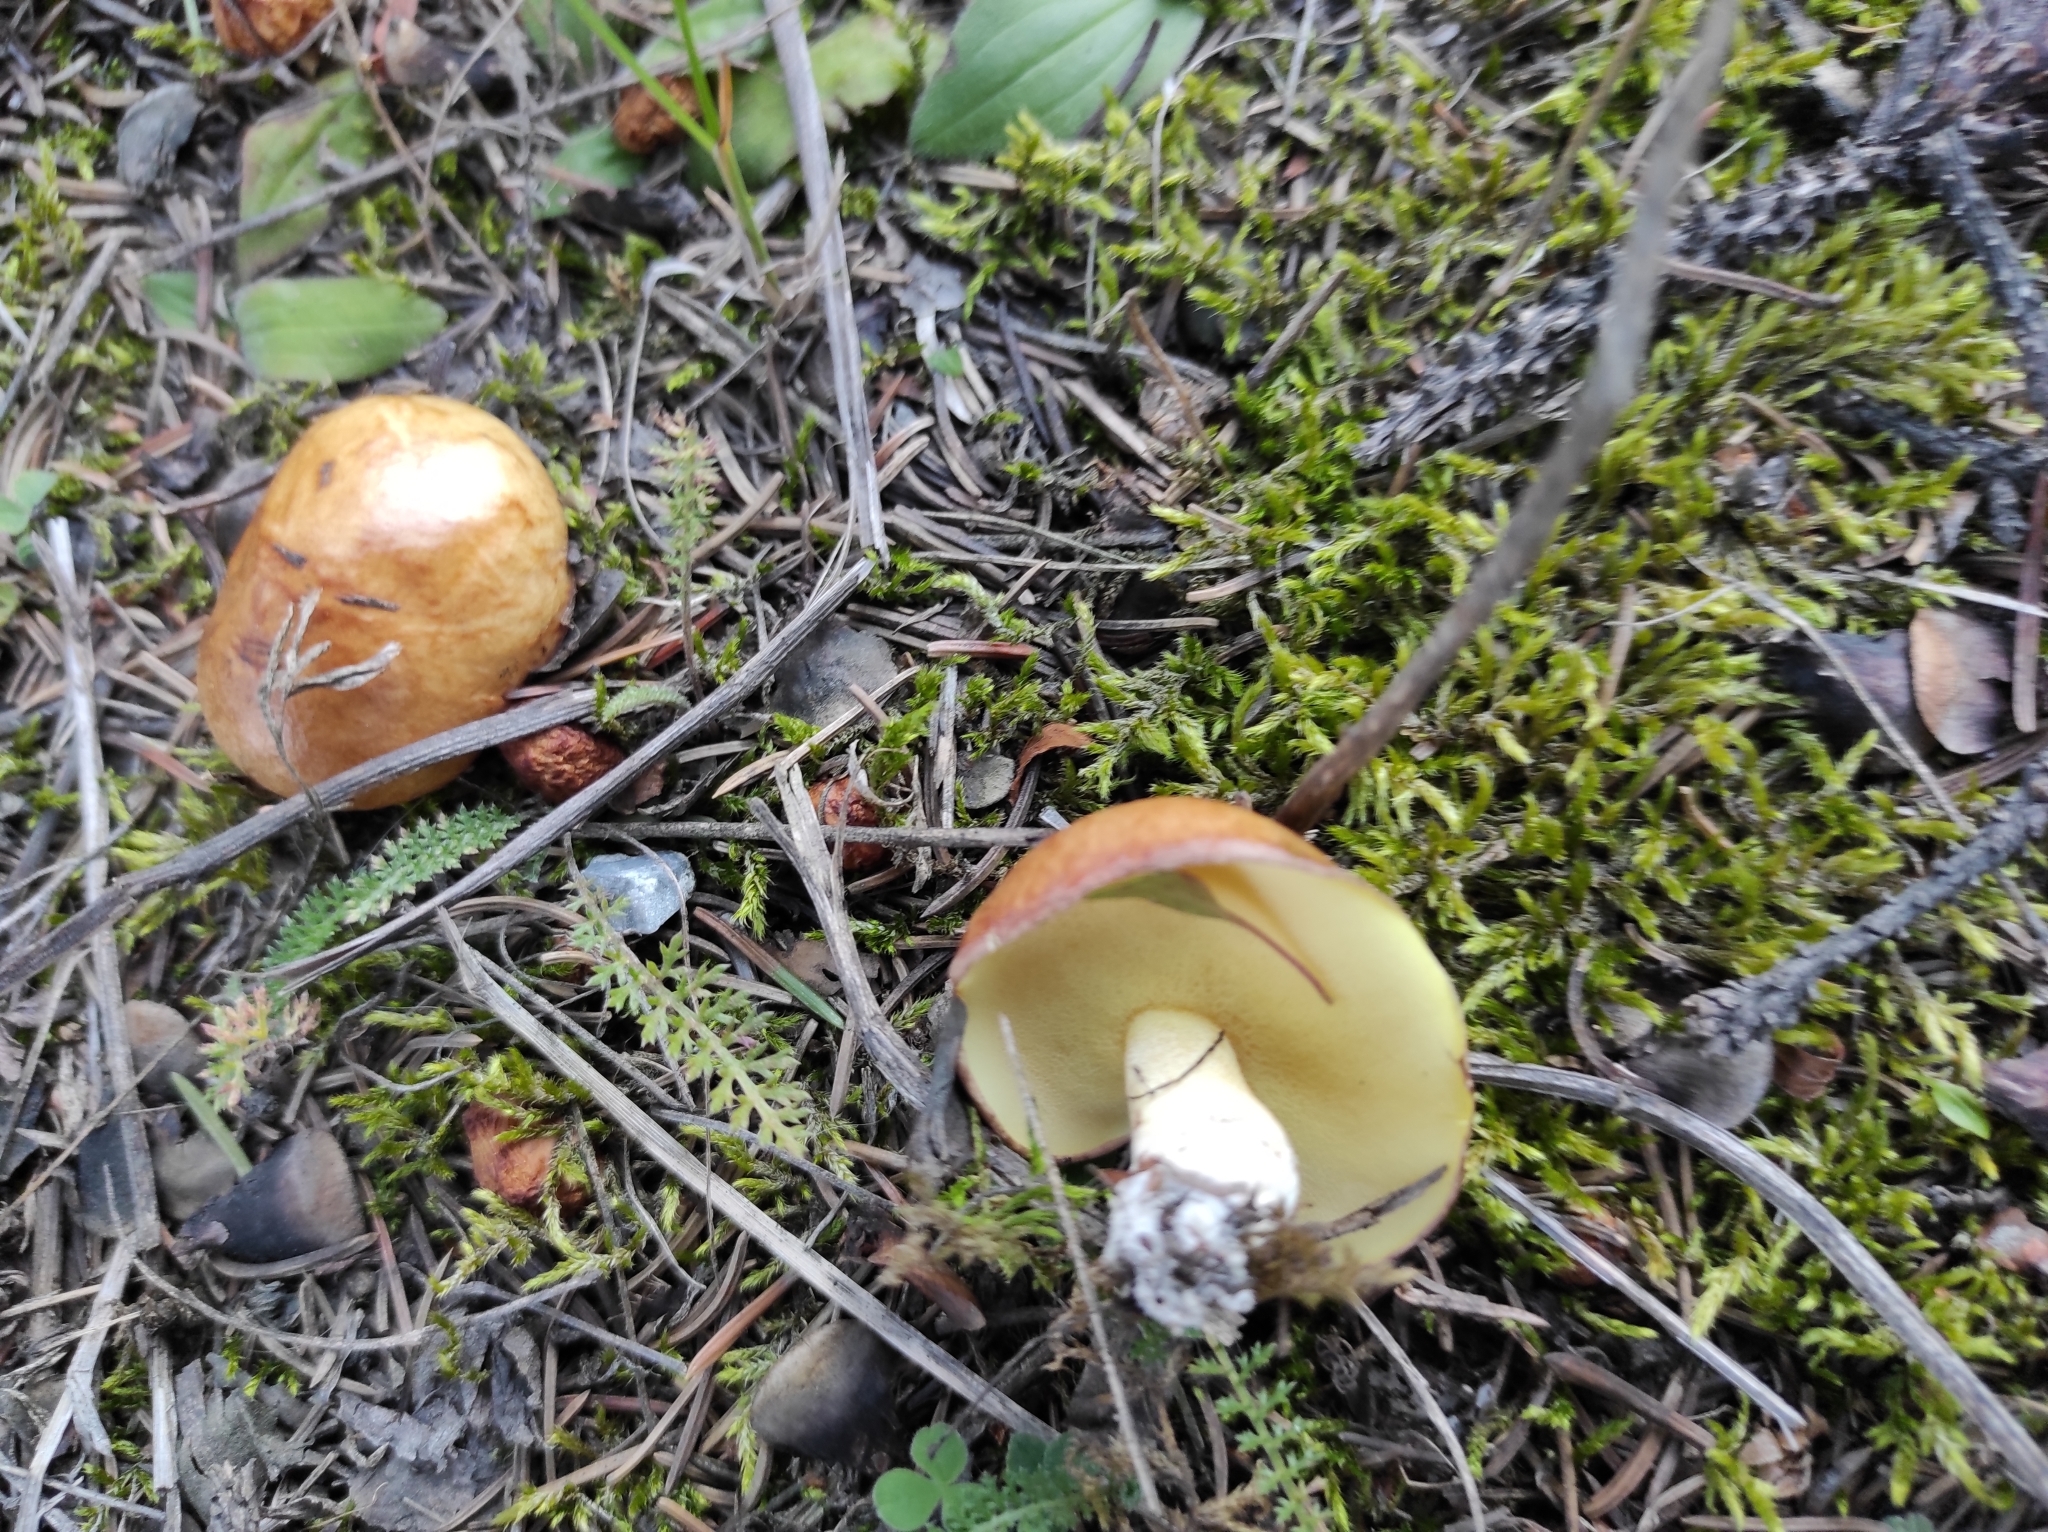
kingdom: Fungi
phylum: Basidiomycota
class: Agaricomycetes
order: Boletales
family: Suillaceae
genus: Suillus
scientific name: Suillus granulatus
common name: Weeping bolete
